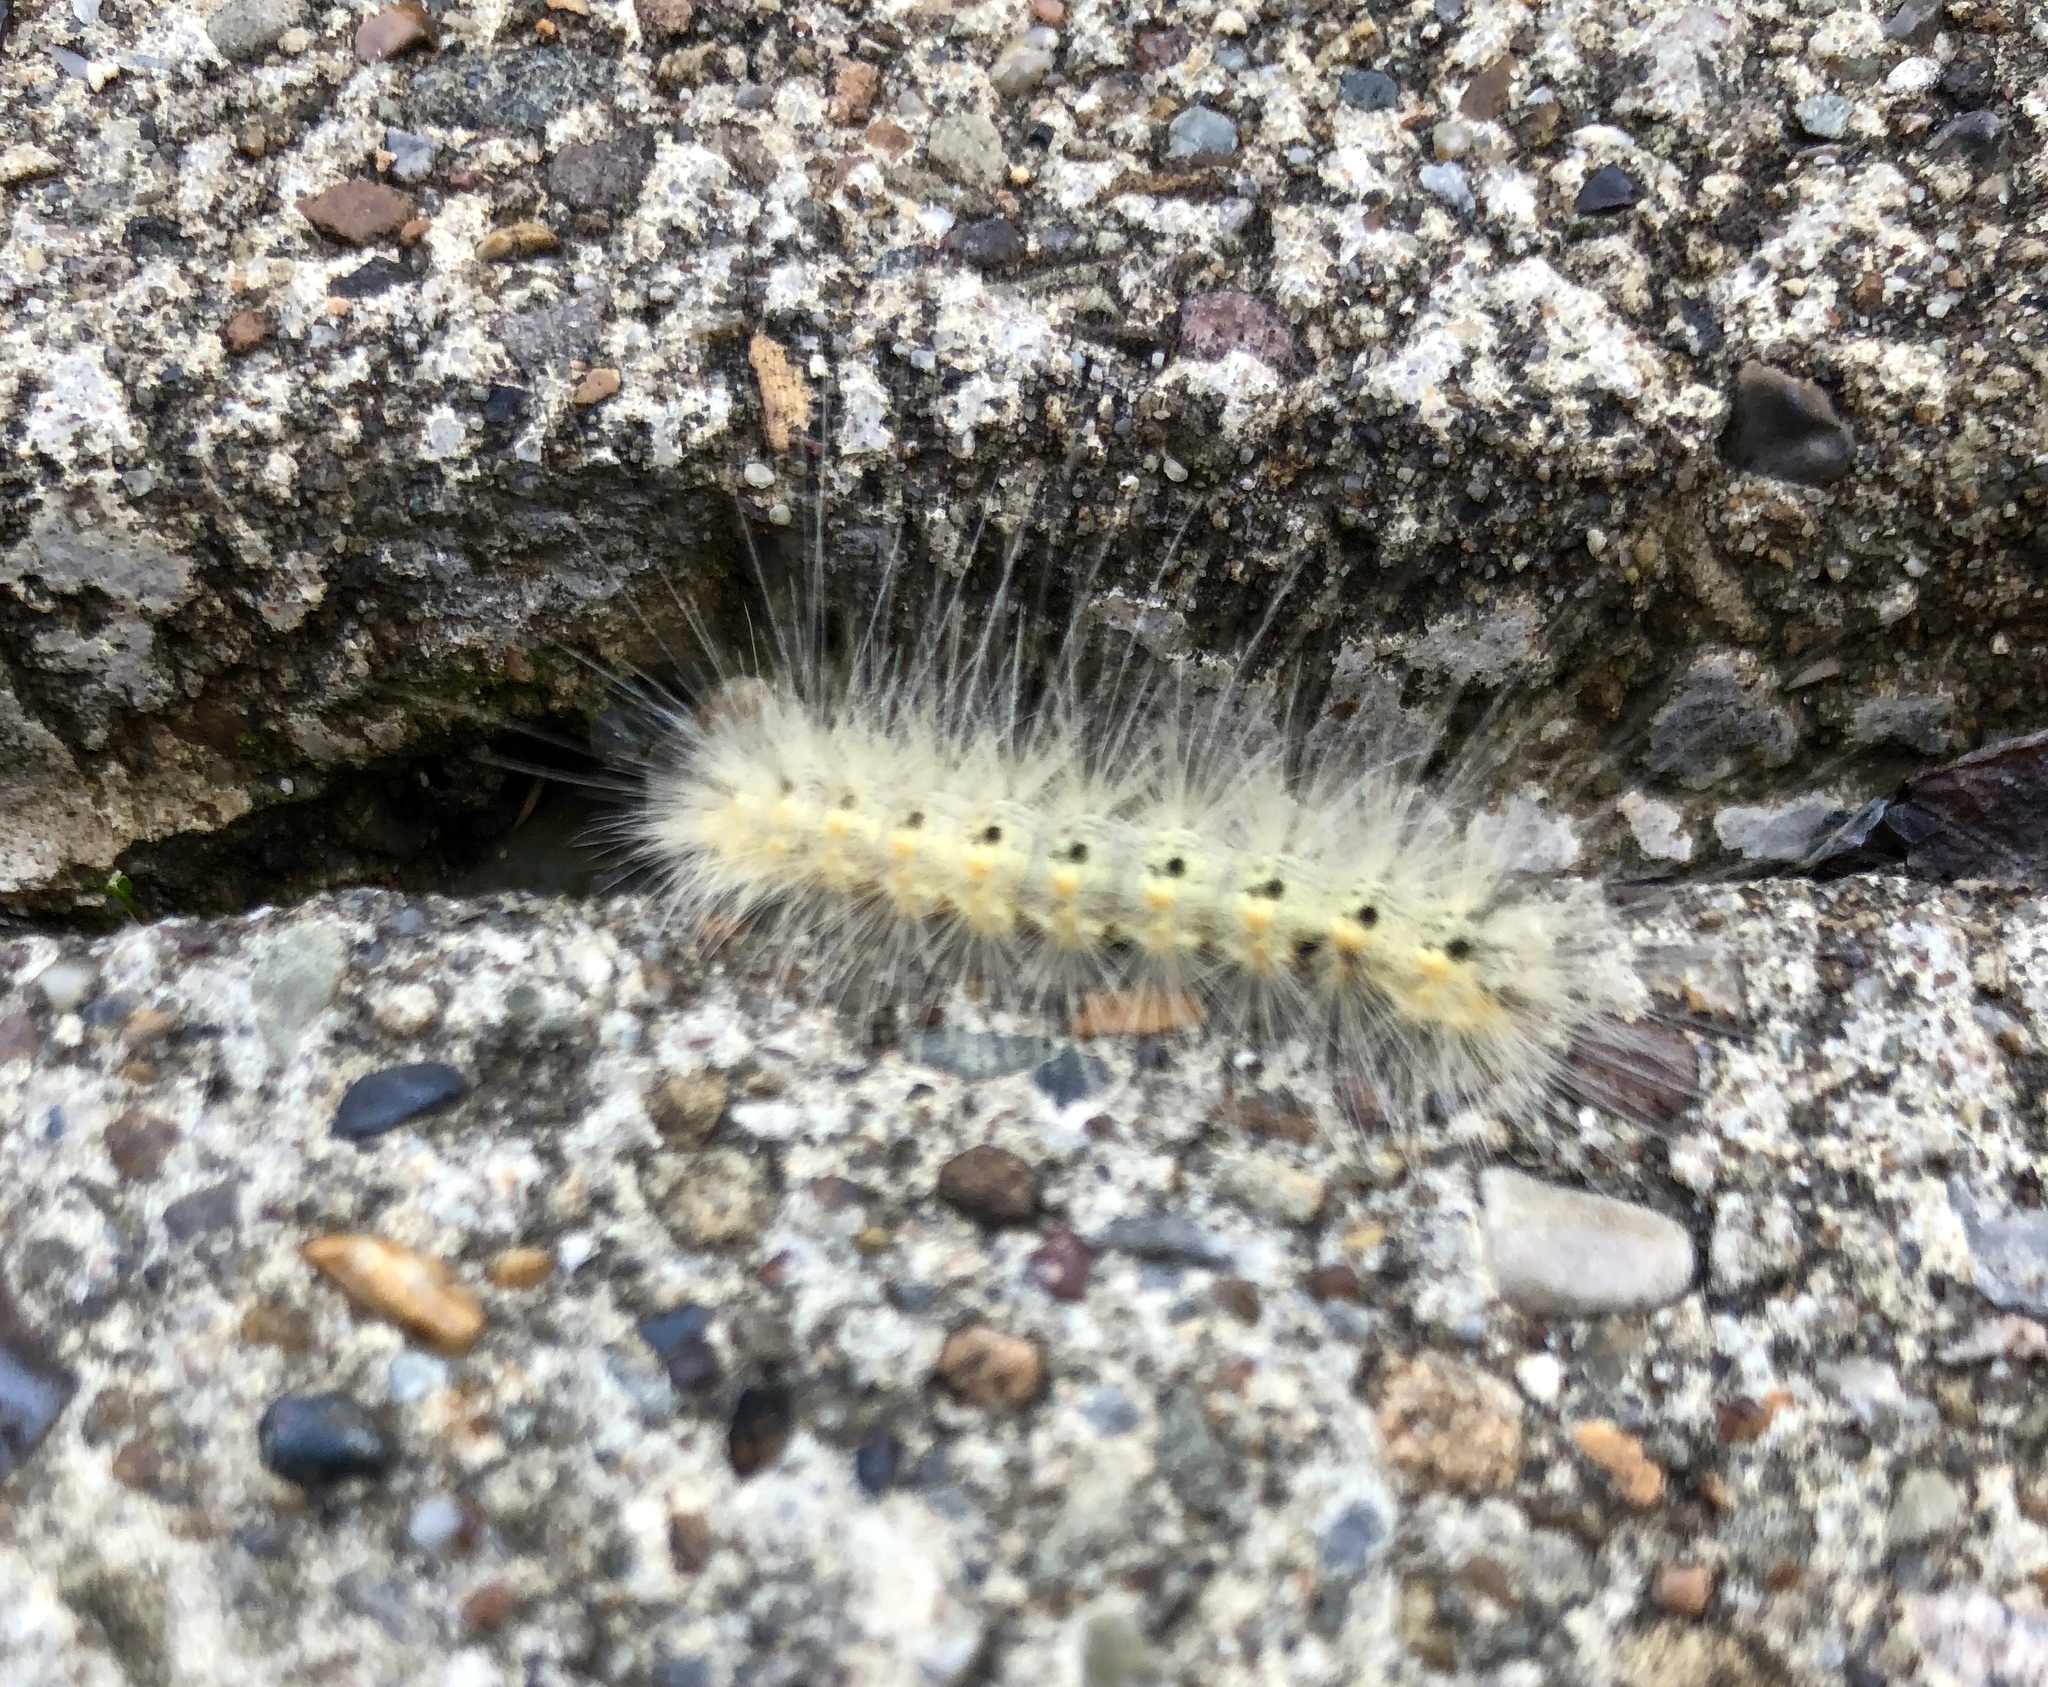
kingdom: Animalia
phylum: Arthropoda
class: Insecta
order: Lepidoptera
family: Erebidae
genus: Hyphantria
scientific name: Hyphantria cunea
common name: American white moth
